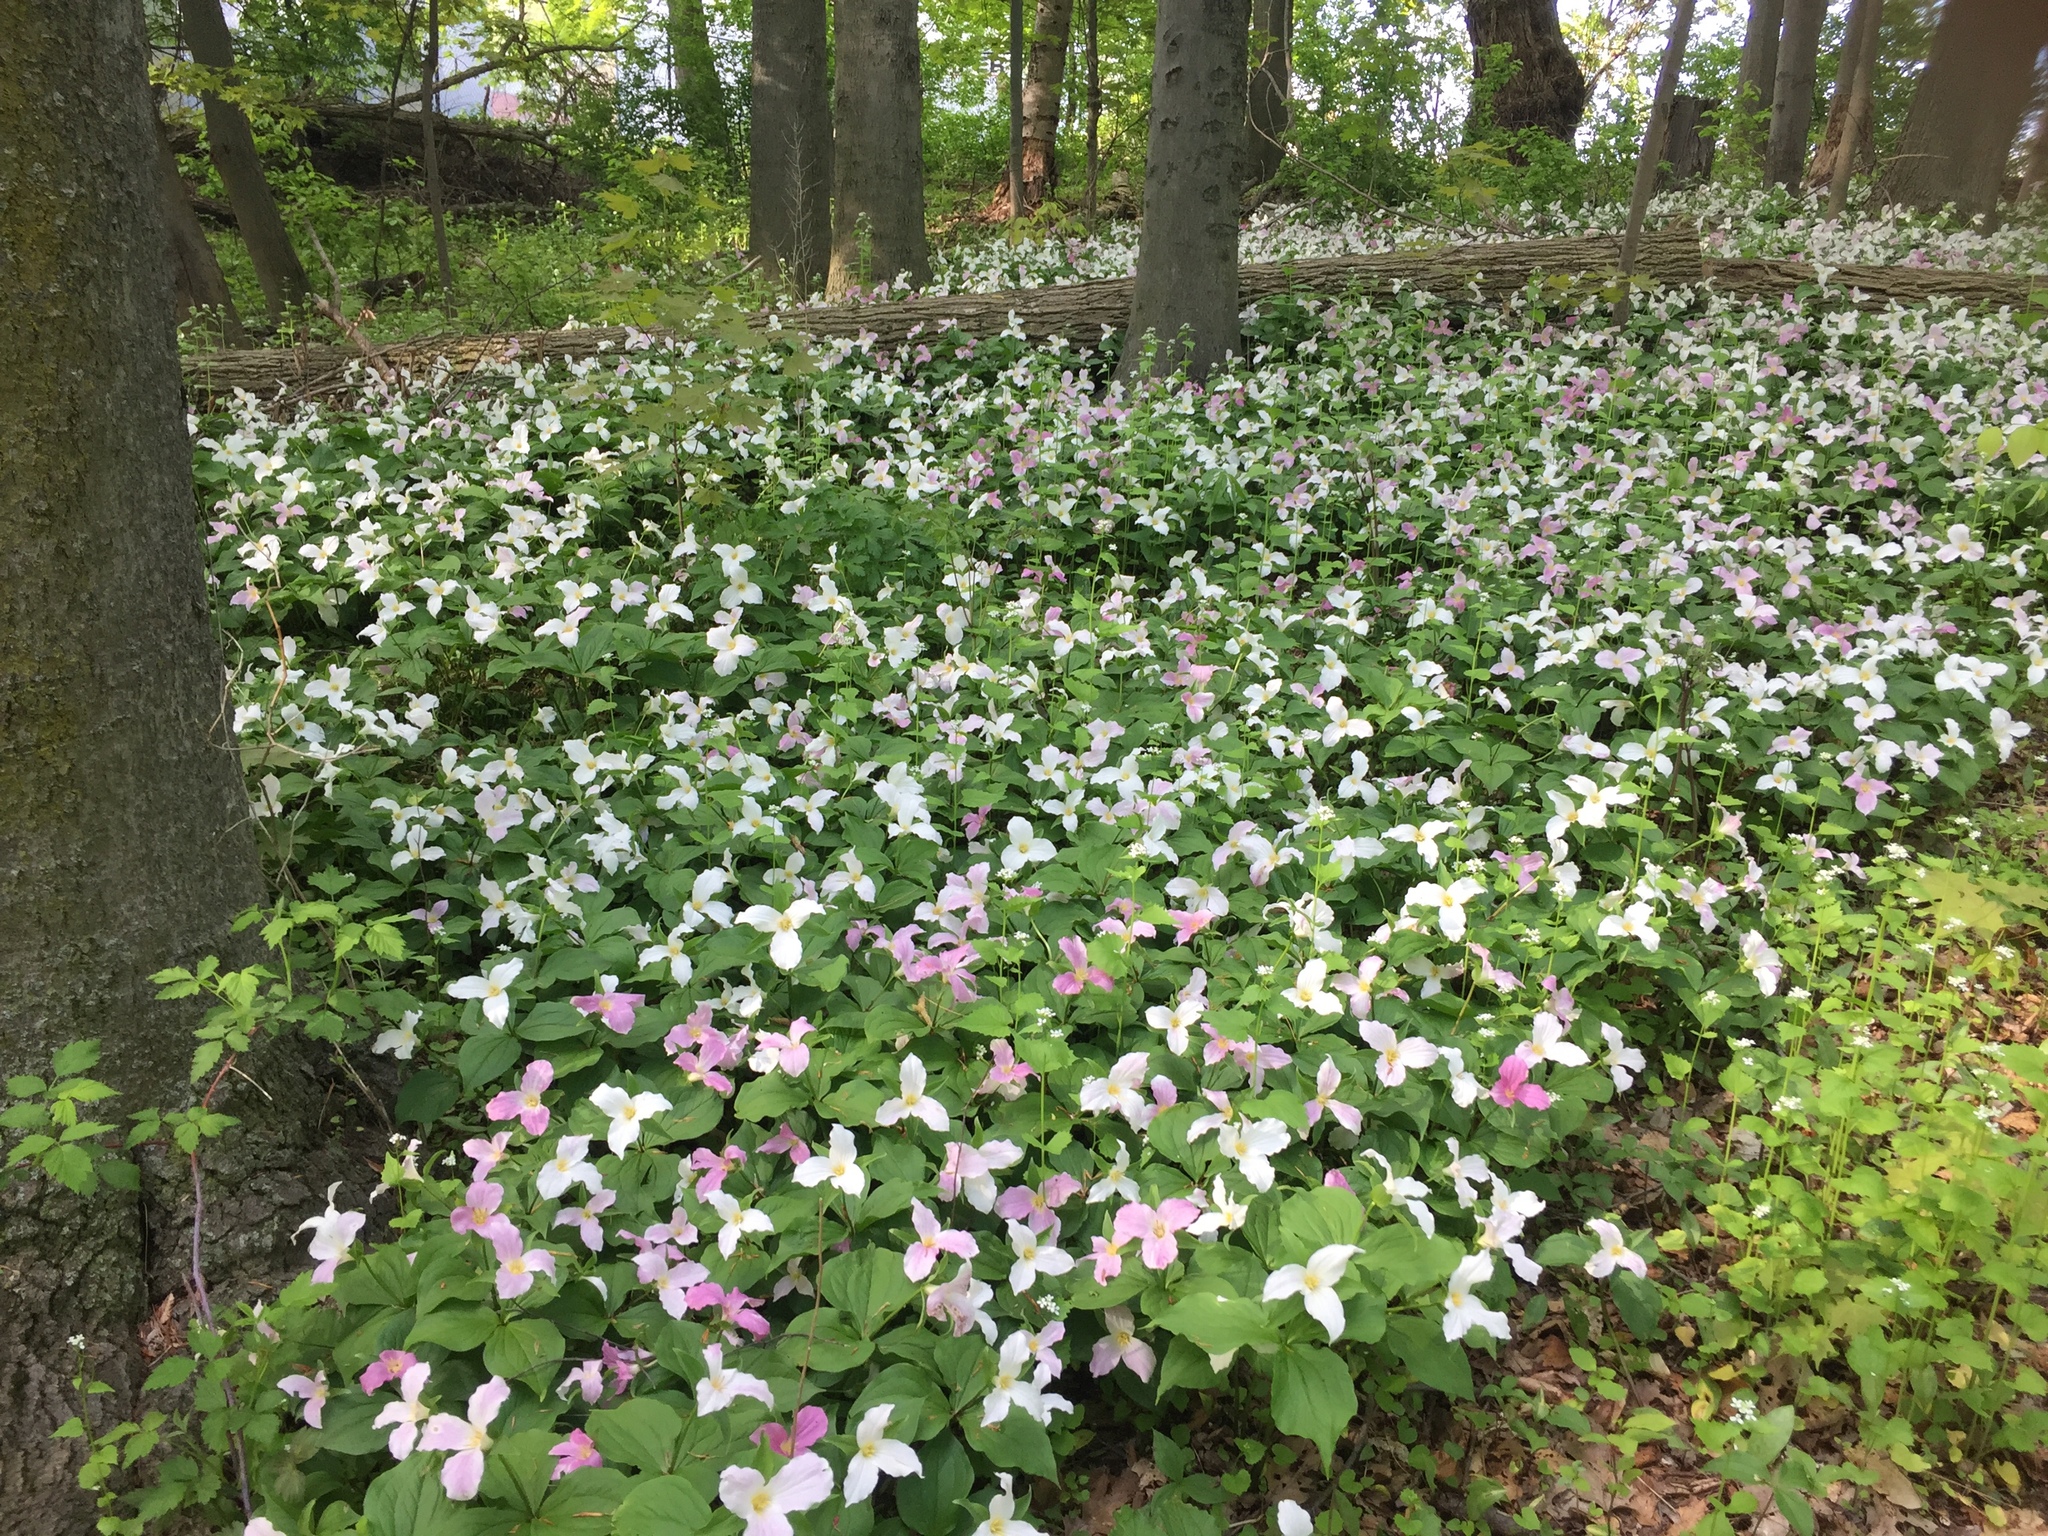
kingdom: Plantae
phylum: Tracheophyta
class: Liliopsida
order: Liliales
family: Melanthiaceae
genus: Trillium
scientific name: Trillium grandiflorum
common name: Great white trillium
